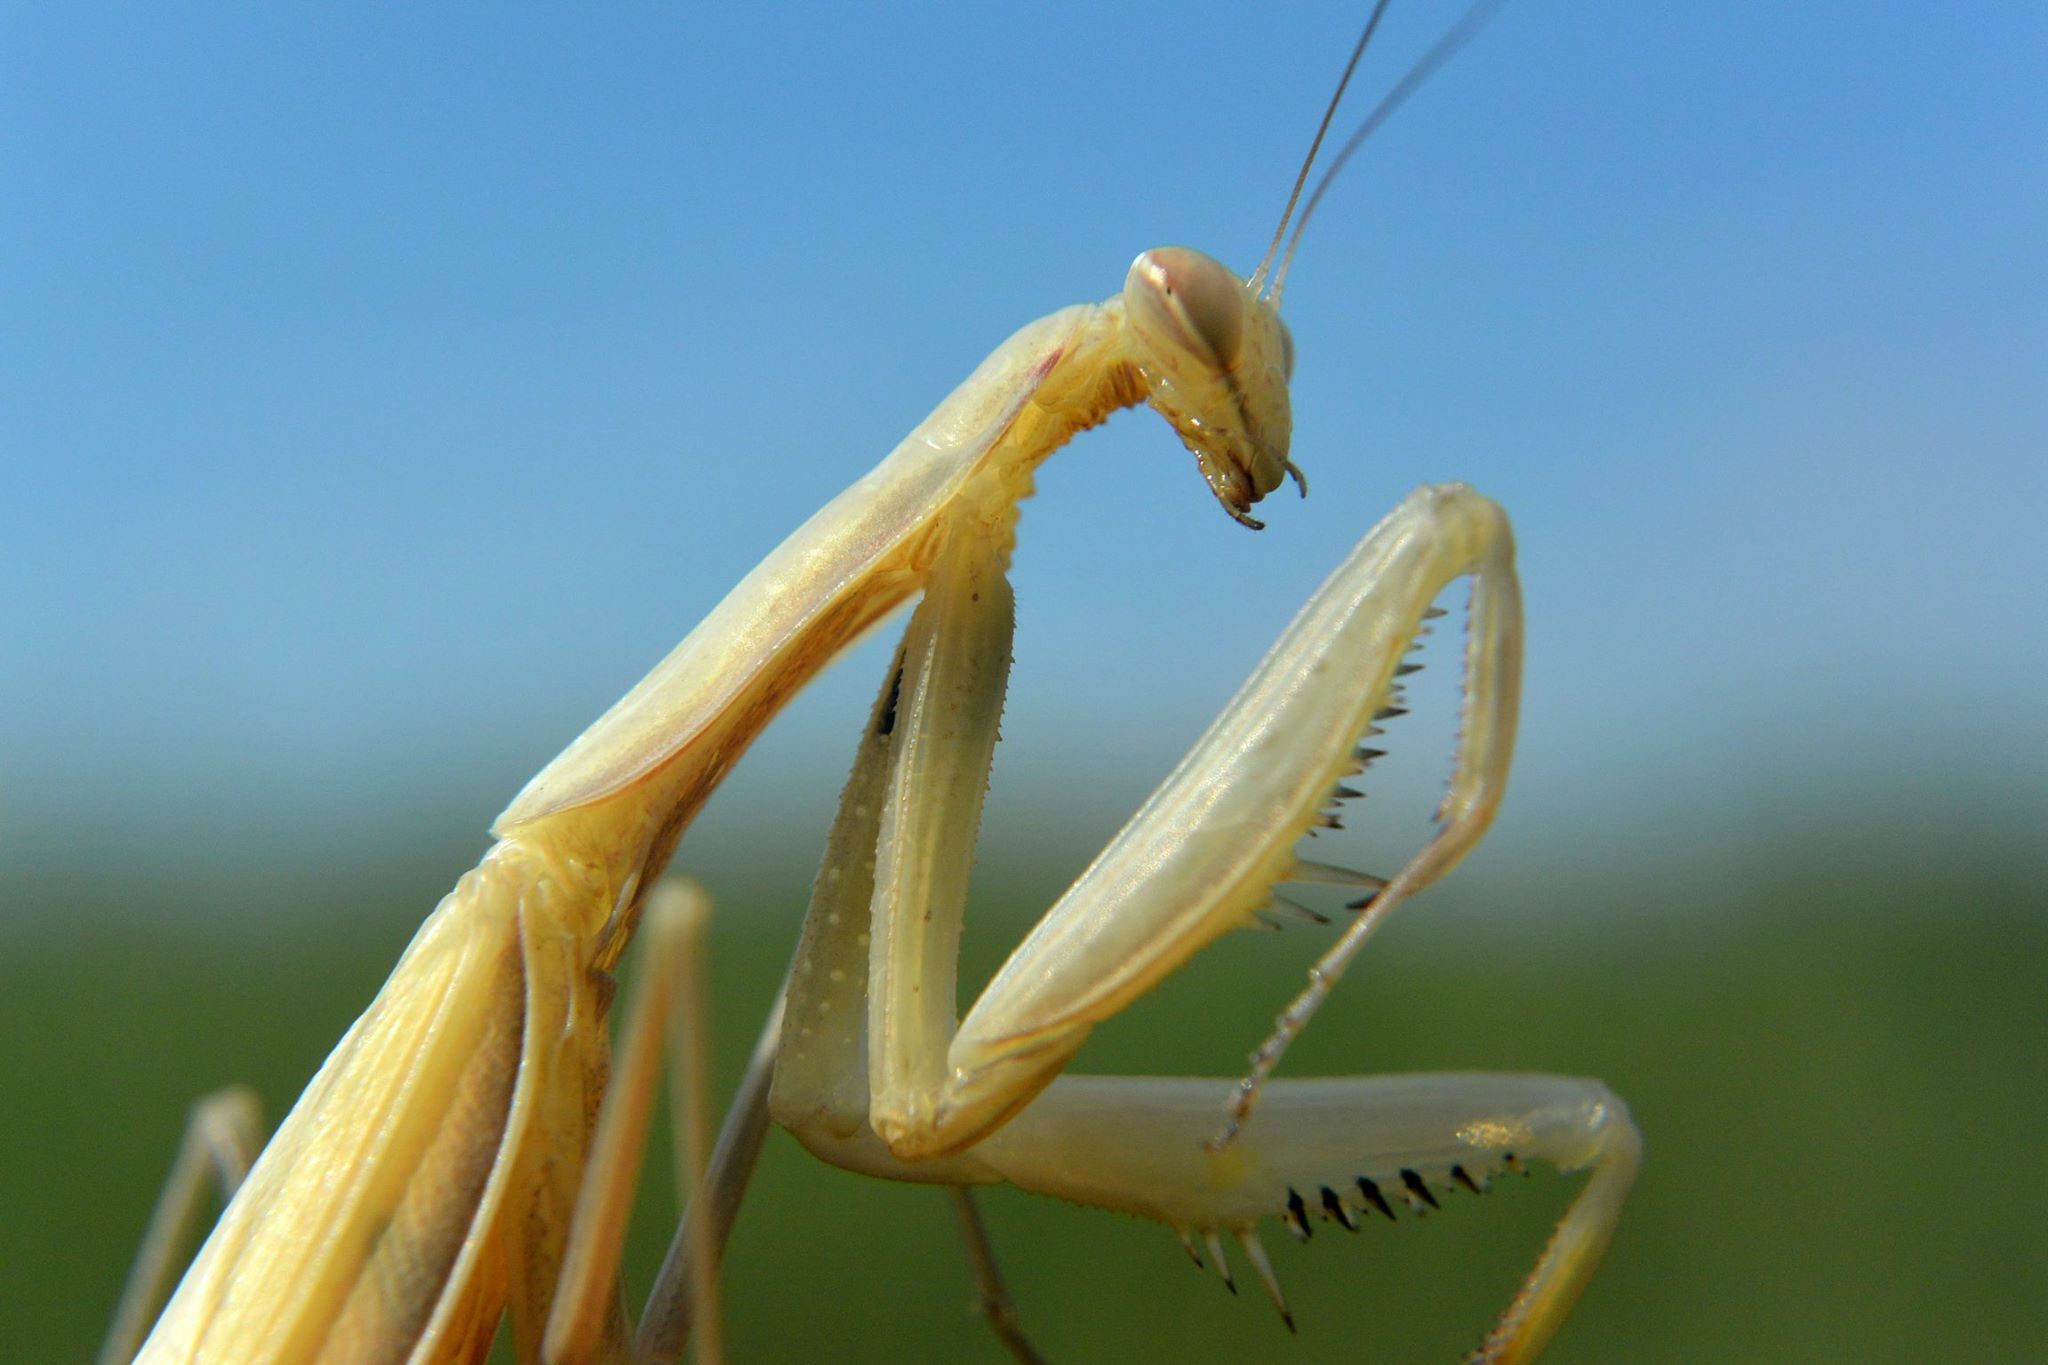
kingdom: Animalia
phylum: Arthropoda
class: Insecta
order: Mantodea
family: Mantidae
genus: Mantis
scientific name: Mantis religiosa
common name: Praying mantis
